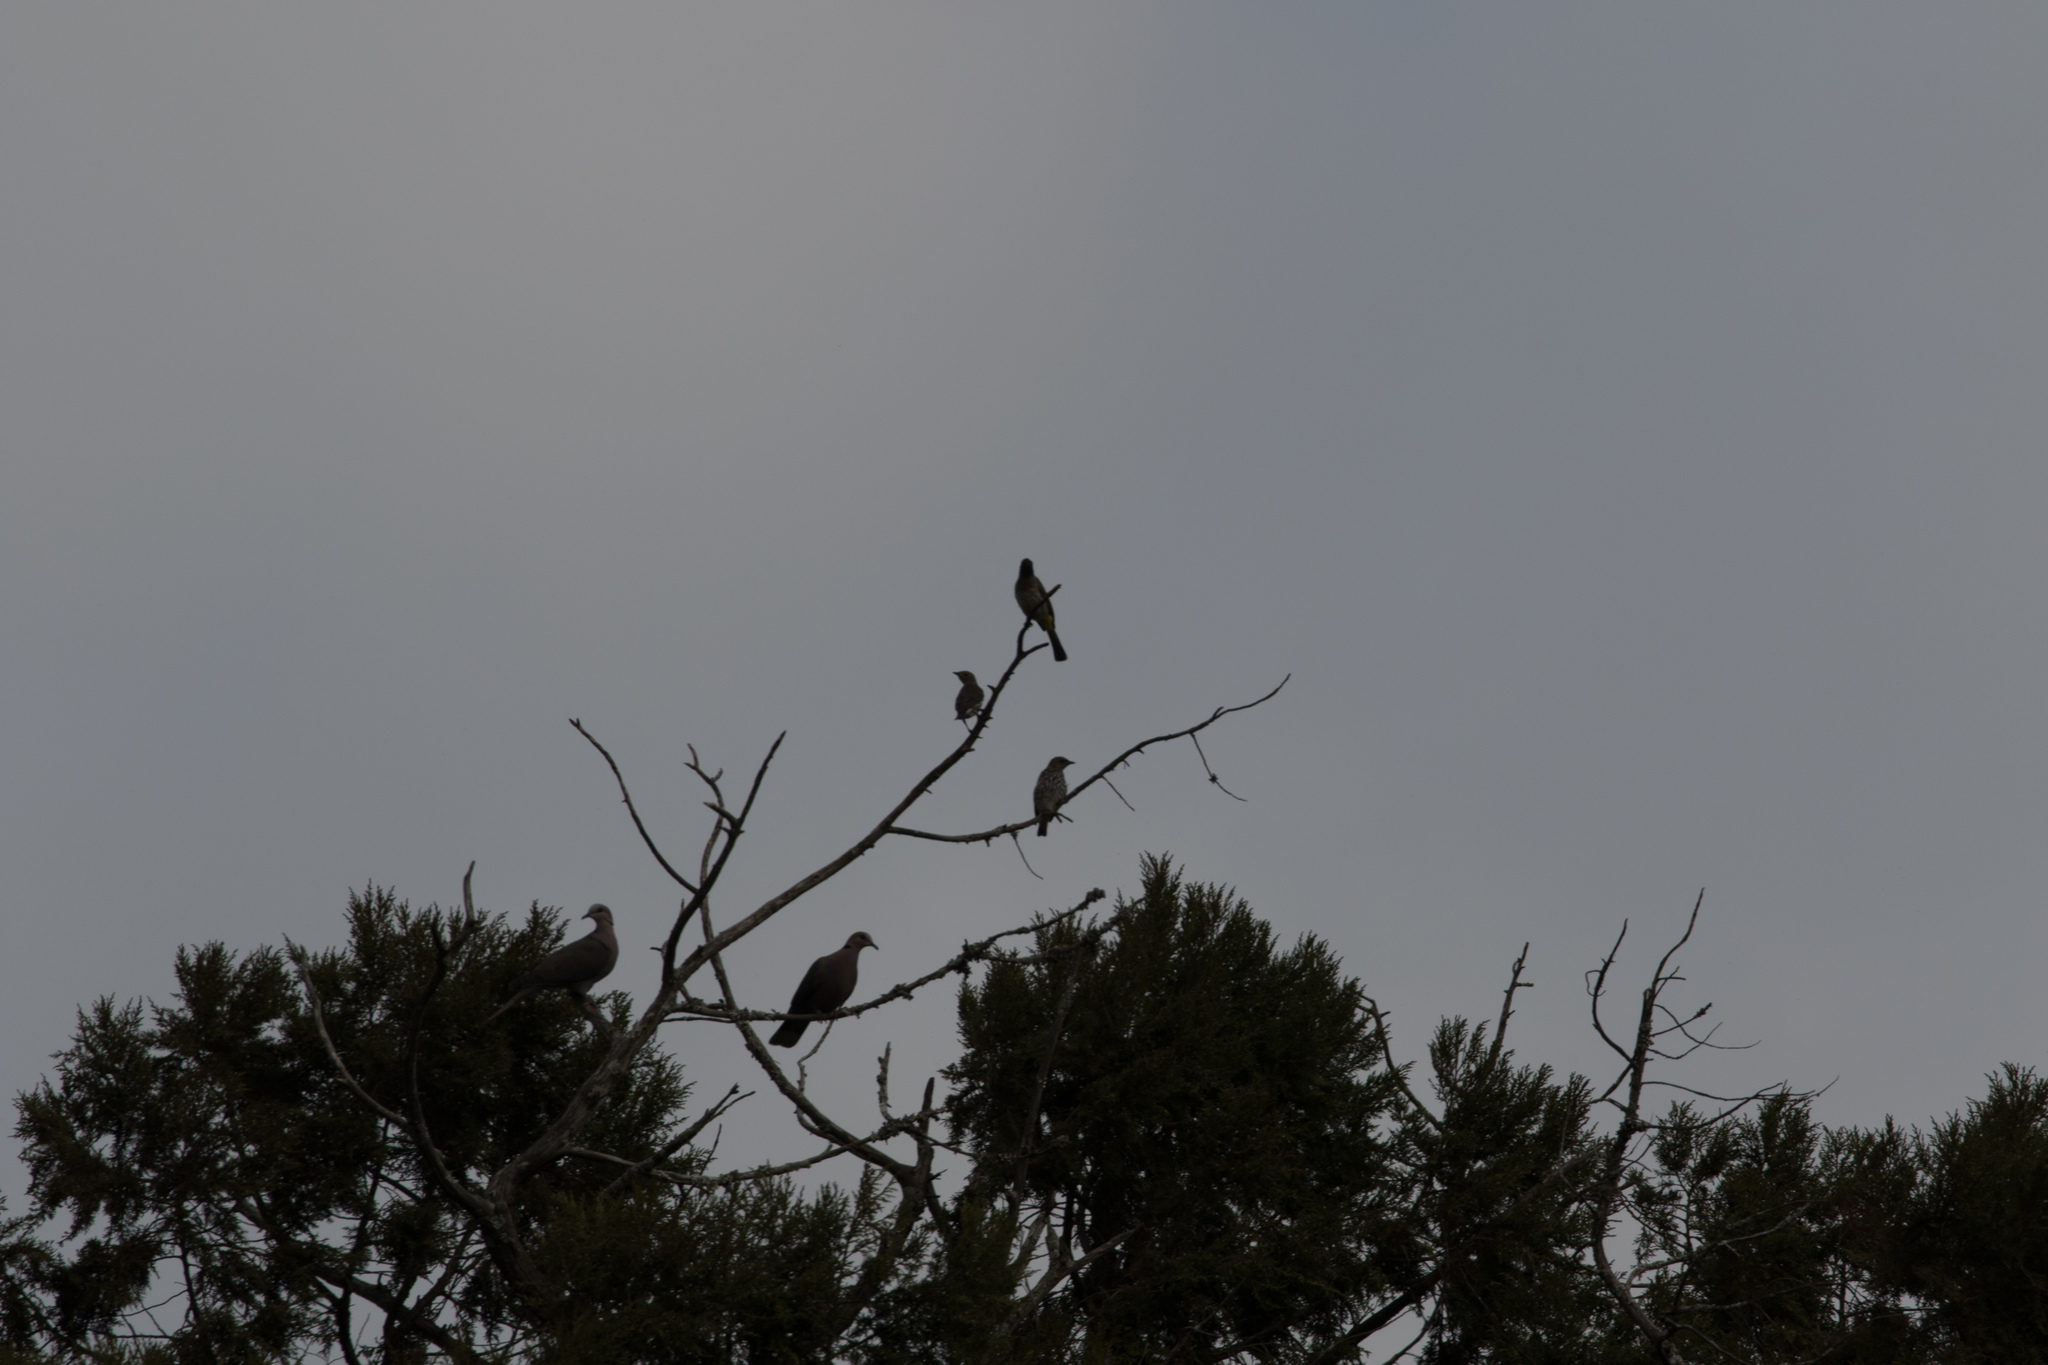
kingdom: Animalia
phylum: Chordata
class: Aves
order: Columbiformes
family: Columbidae
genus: Streptopelia
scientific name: Streptopelia semitorquata
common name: Red-eyed dove
